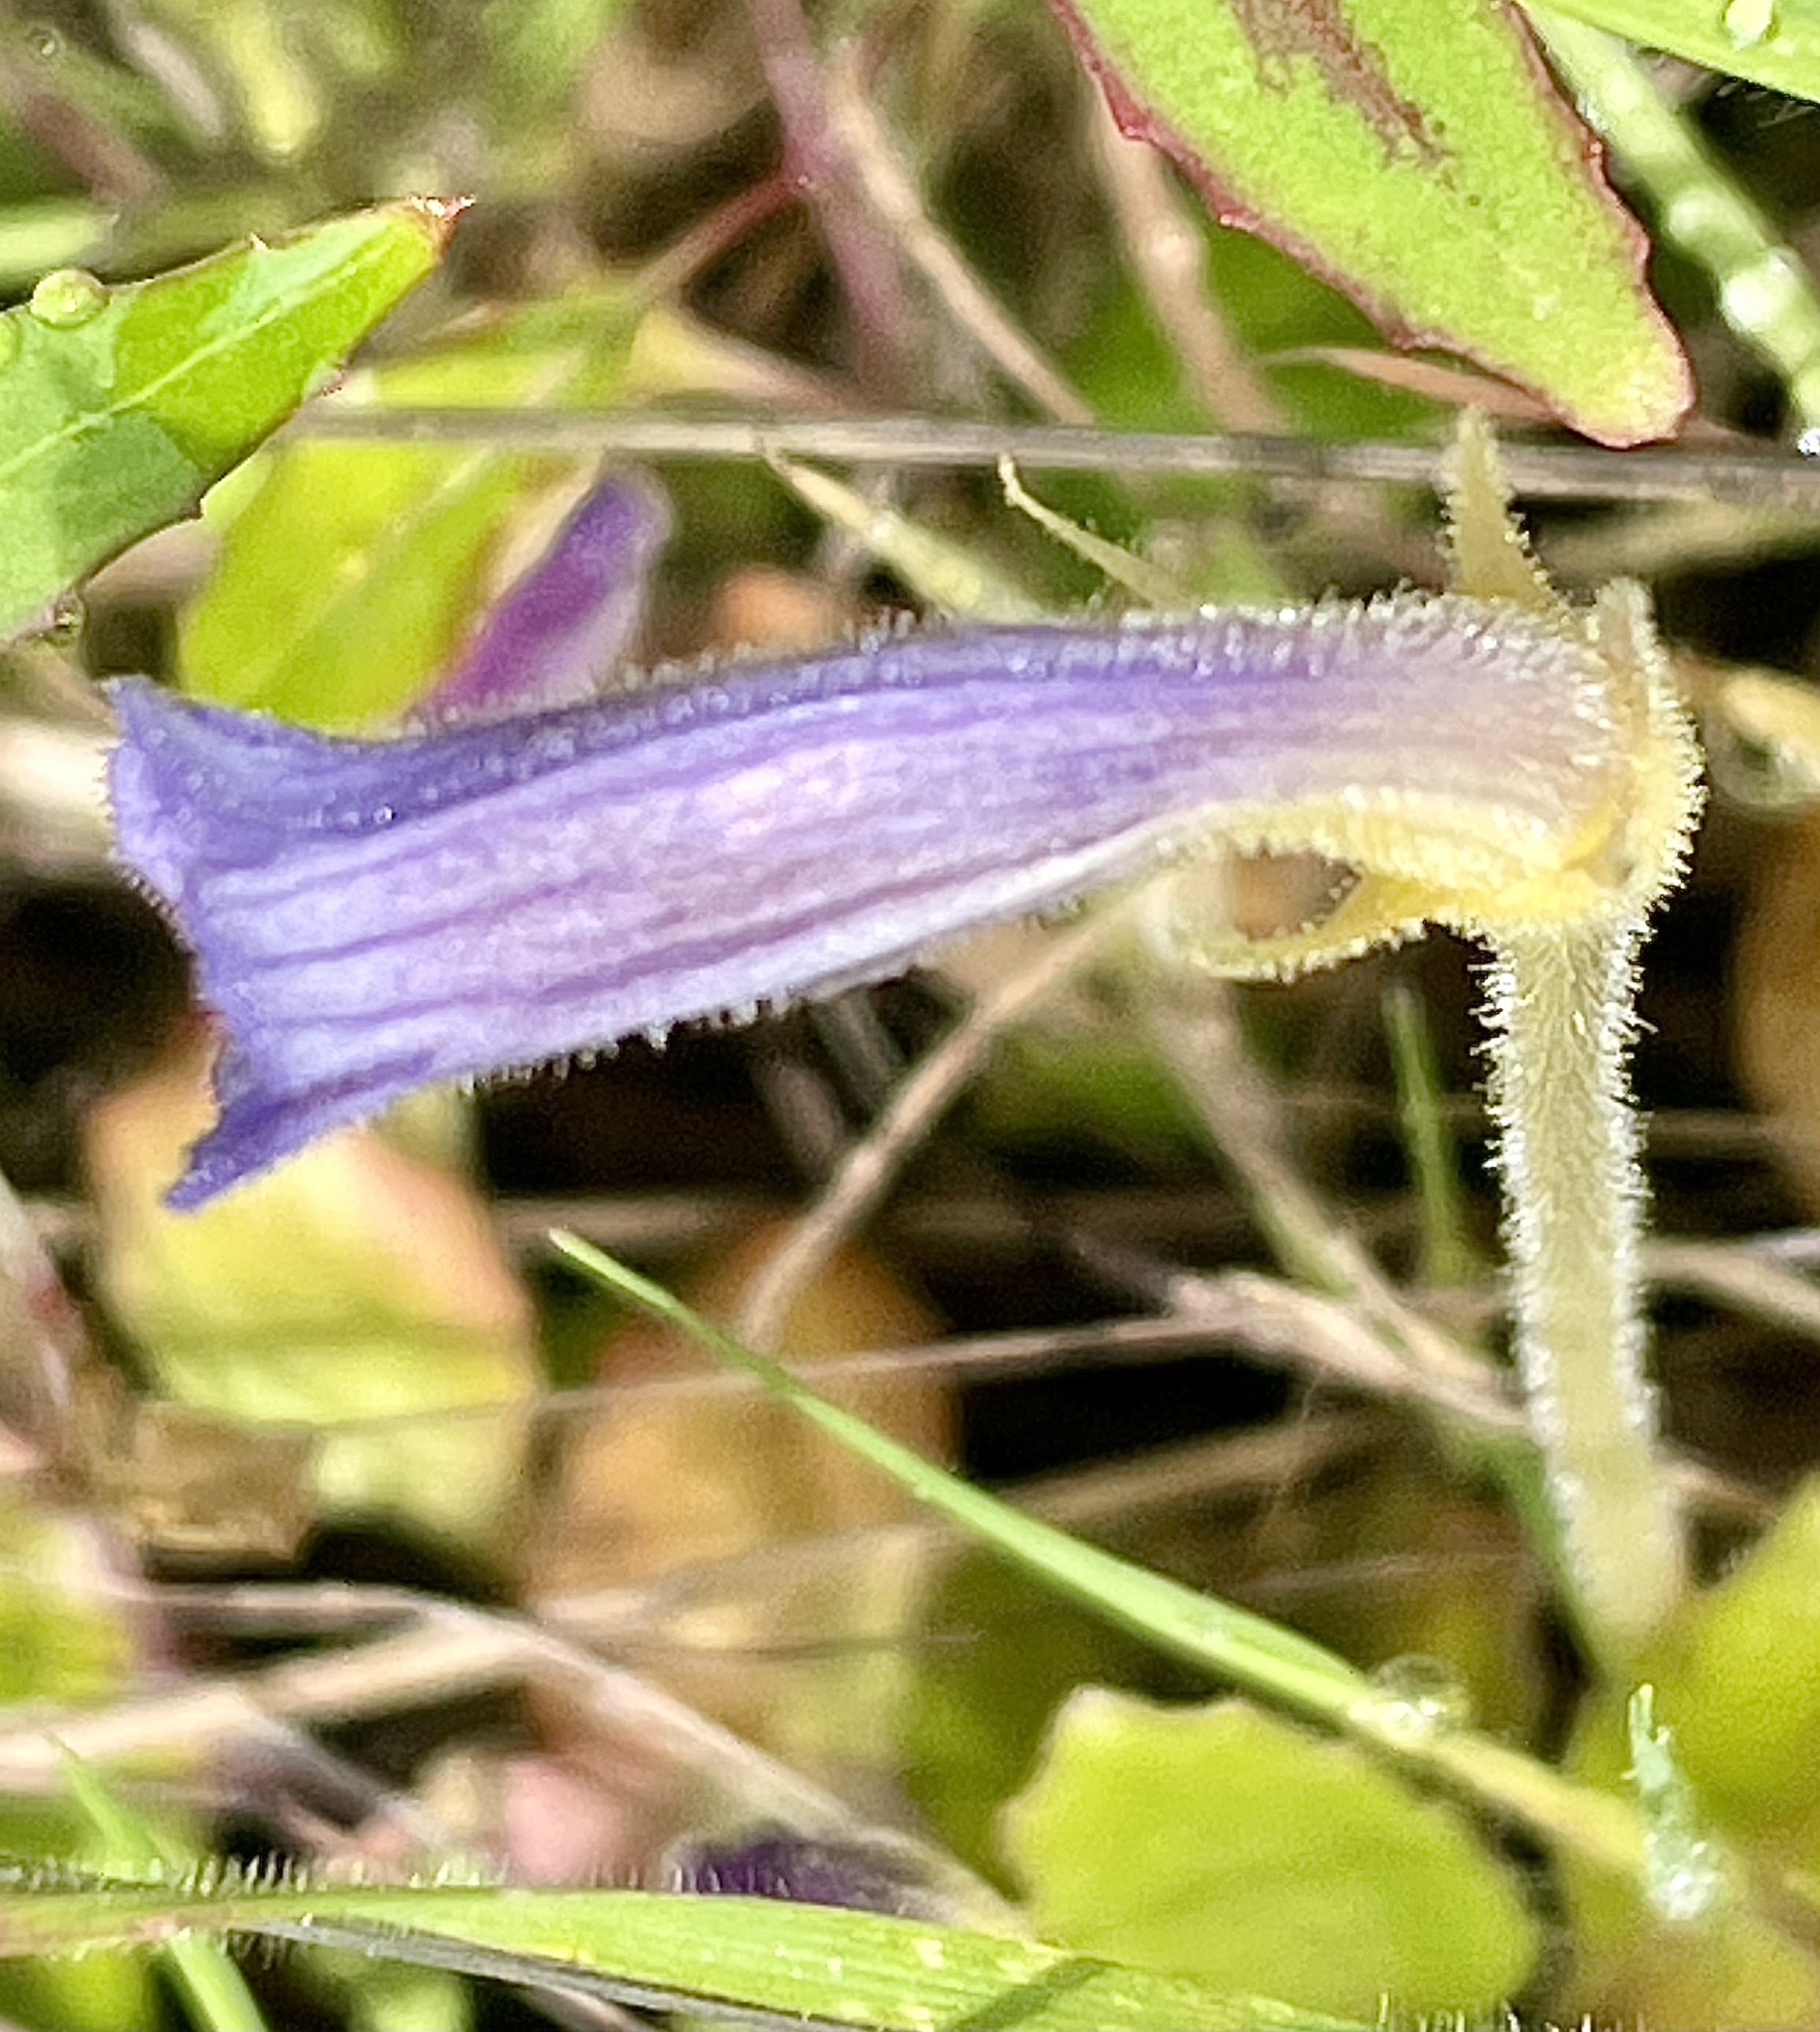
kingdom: Plantae
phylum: Tracheophyta
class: Magnoliopsida
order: Lamiales
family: Orobanchaceae
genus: Aphyllon
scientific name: Aphyllon uniflorum
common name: One-flowered broomrape
